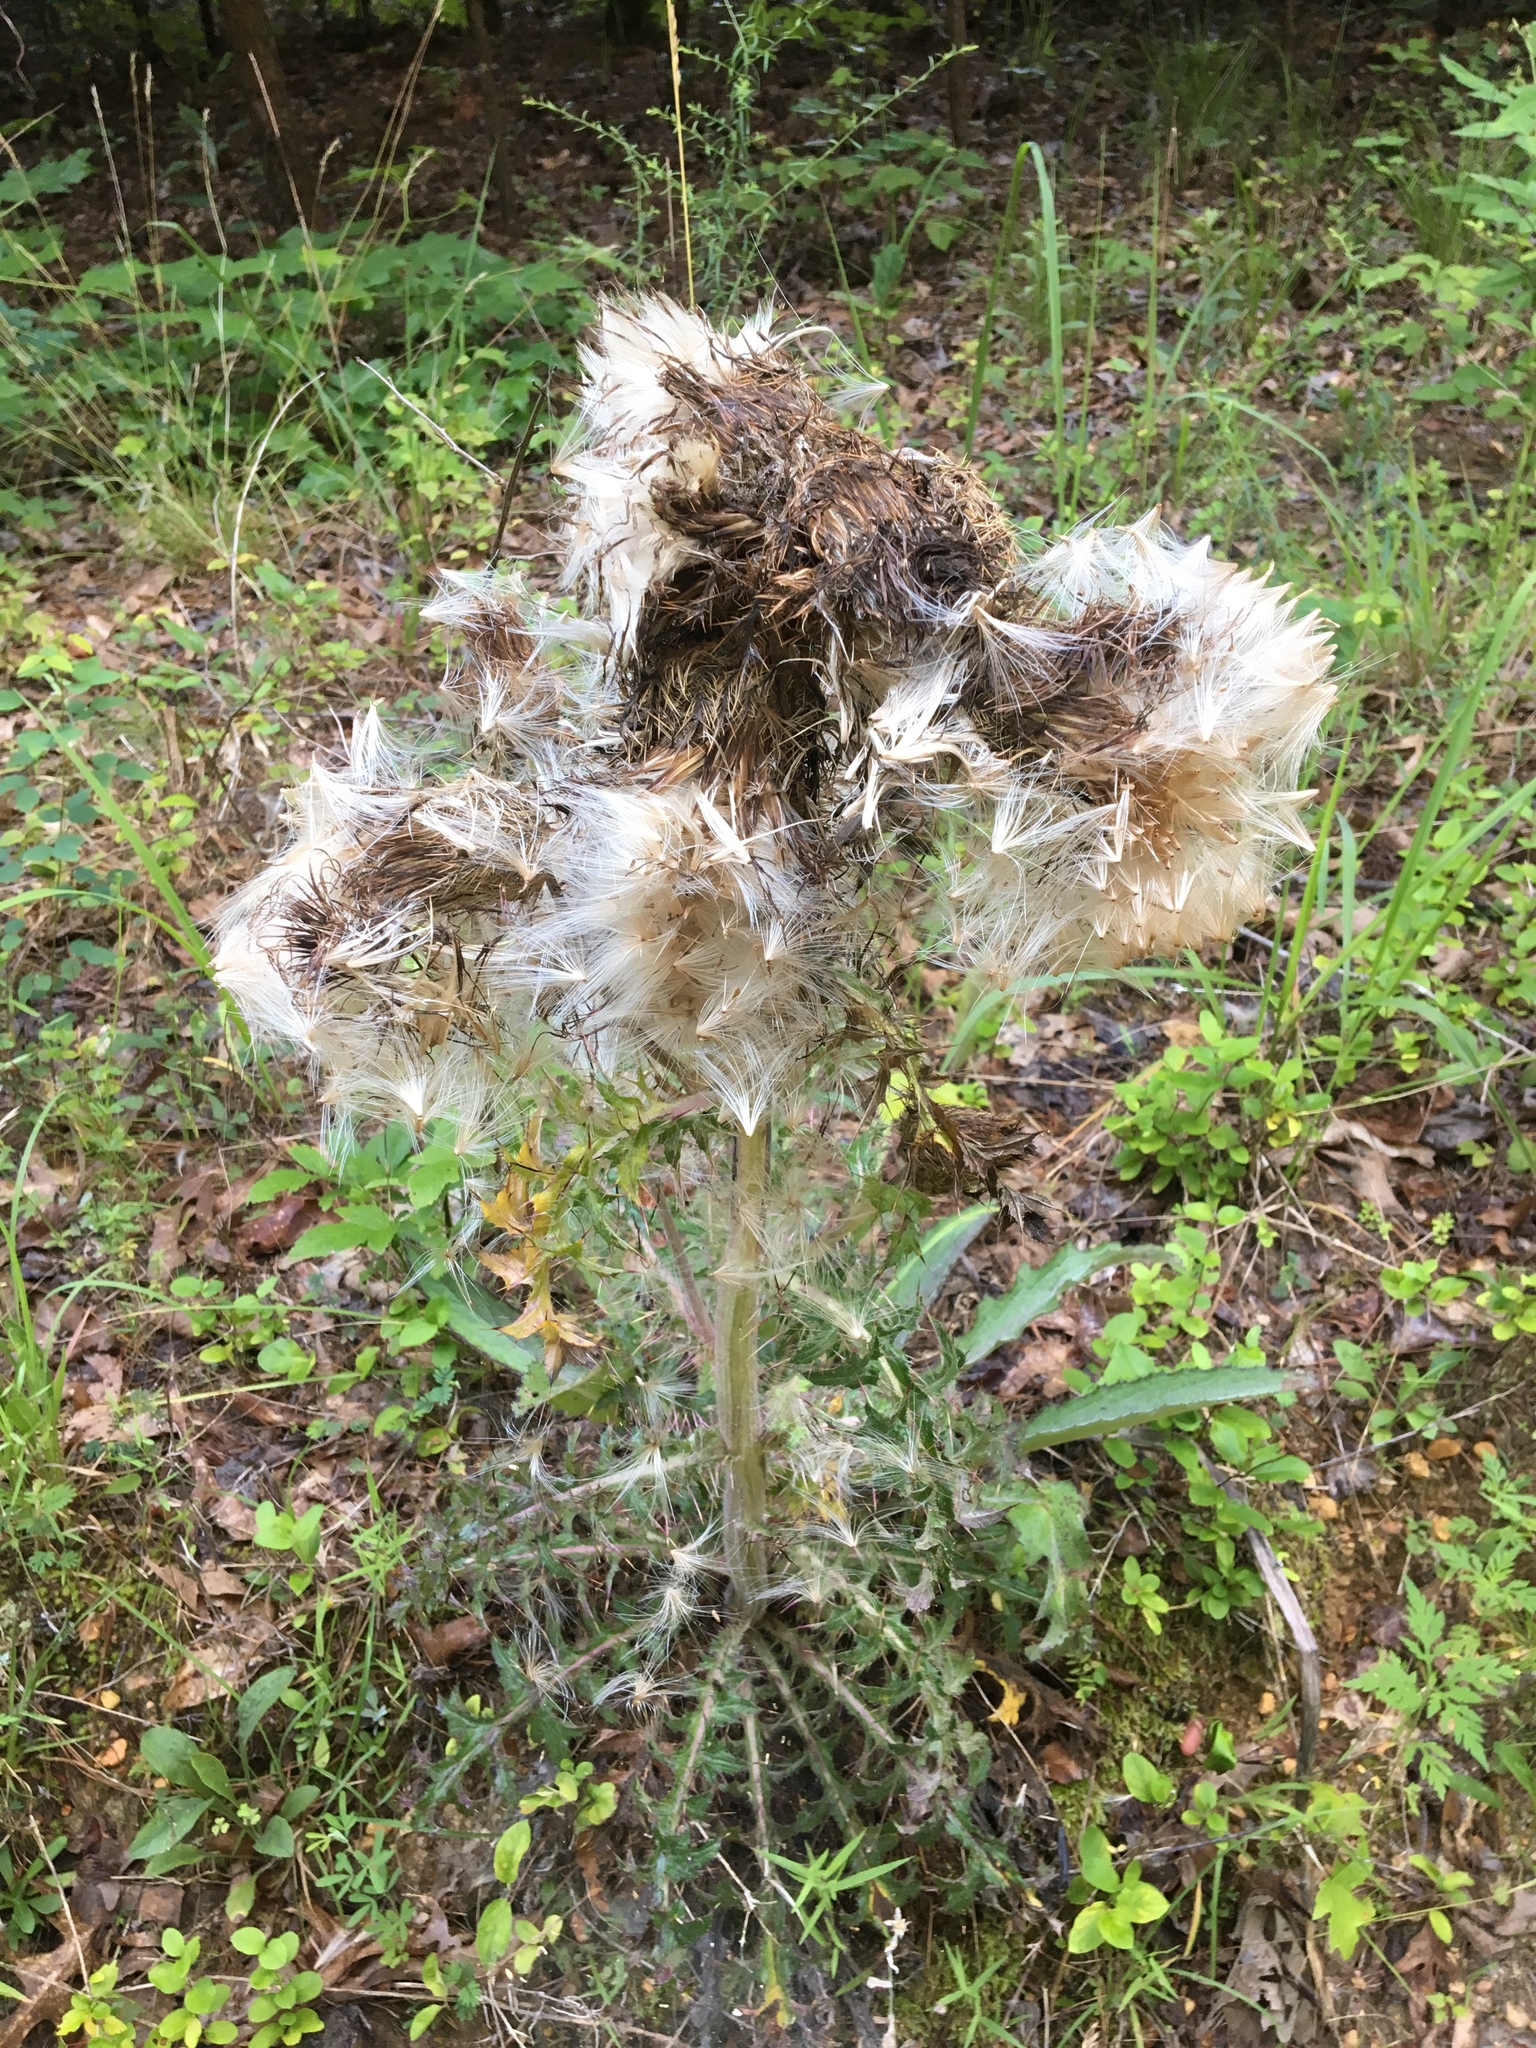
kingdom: Plantae
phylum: Tracheophyta
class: Magnoliopsida
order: Asterales
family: Asteraceae
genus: Cirsium
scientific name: Cirsium horridulum
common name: Bristly thistle
